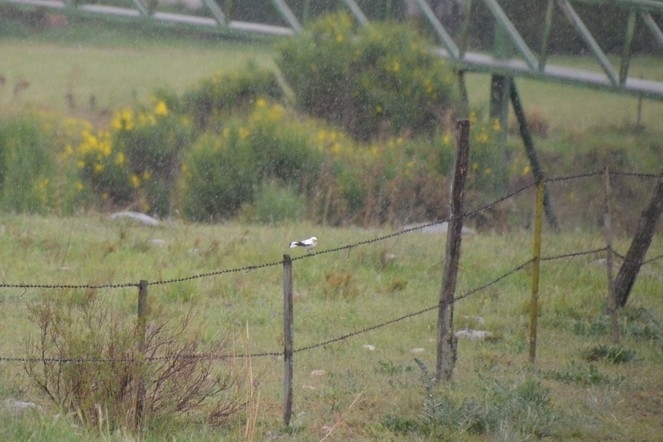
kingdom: Animalia
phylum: Chordata
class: Aves
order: Passeriformes
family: Tyrannidae
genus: Xolmis
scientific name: Xolmis irupero
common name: White monjita
